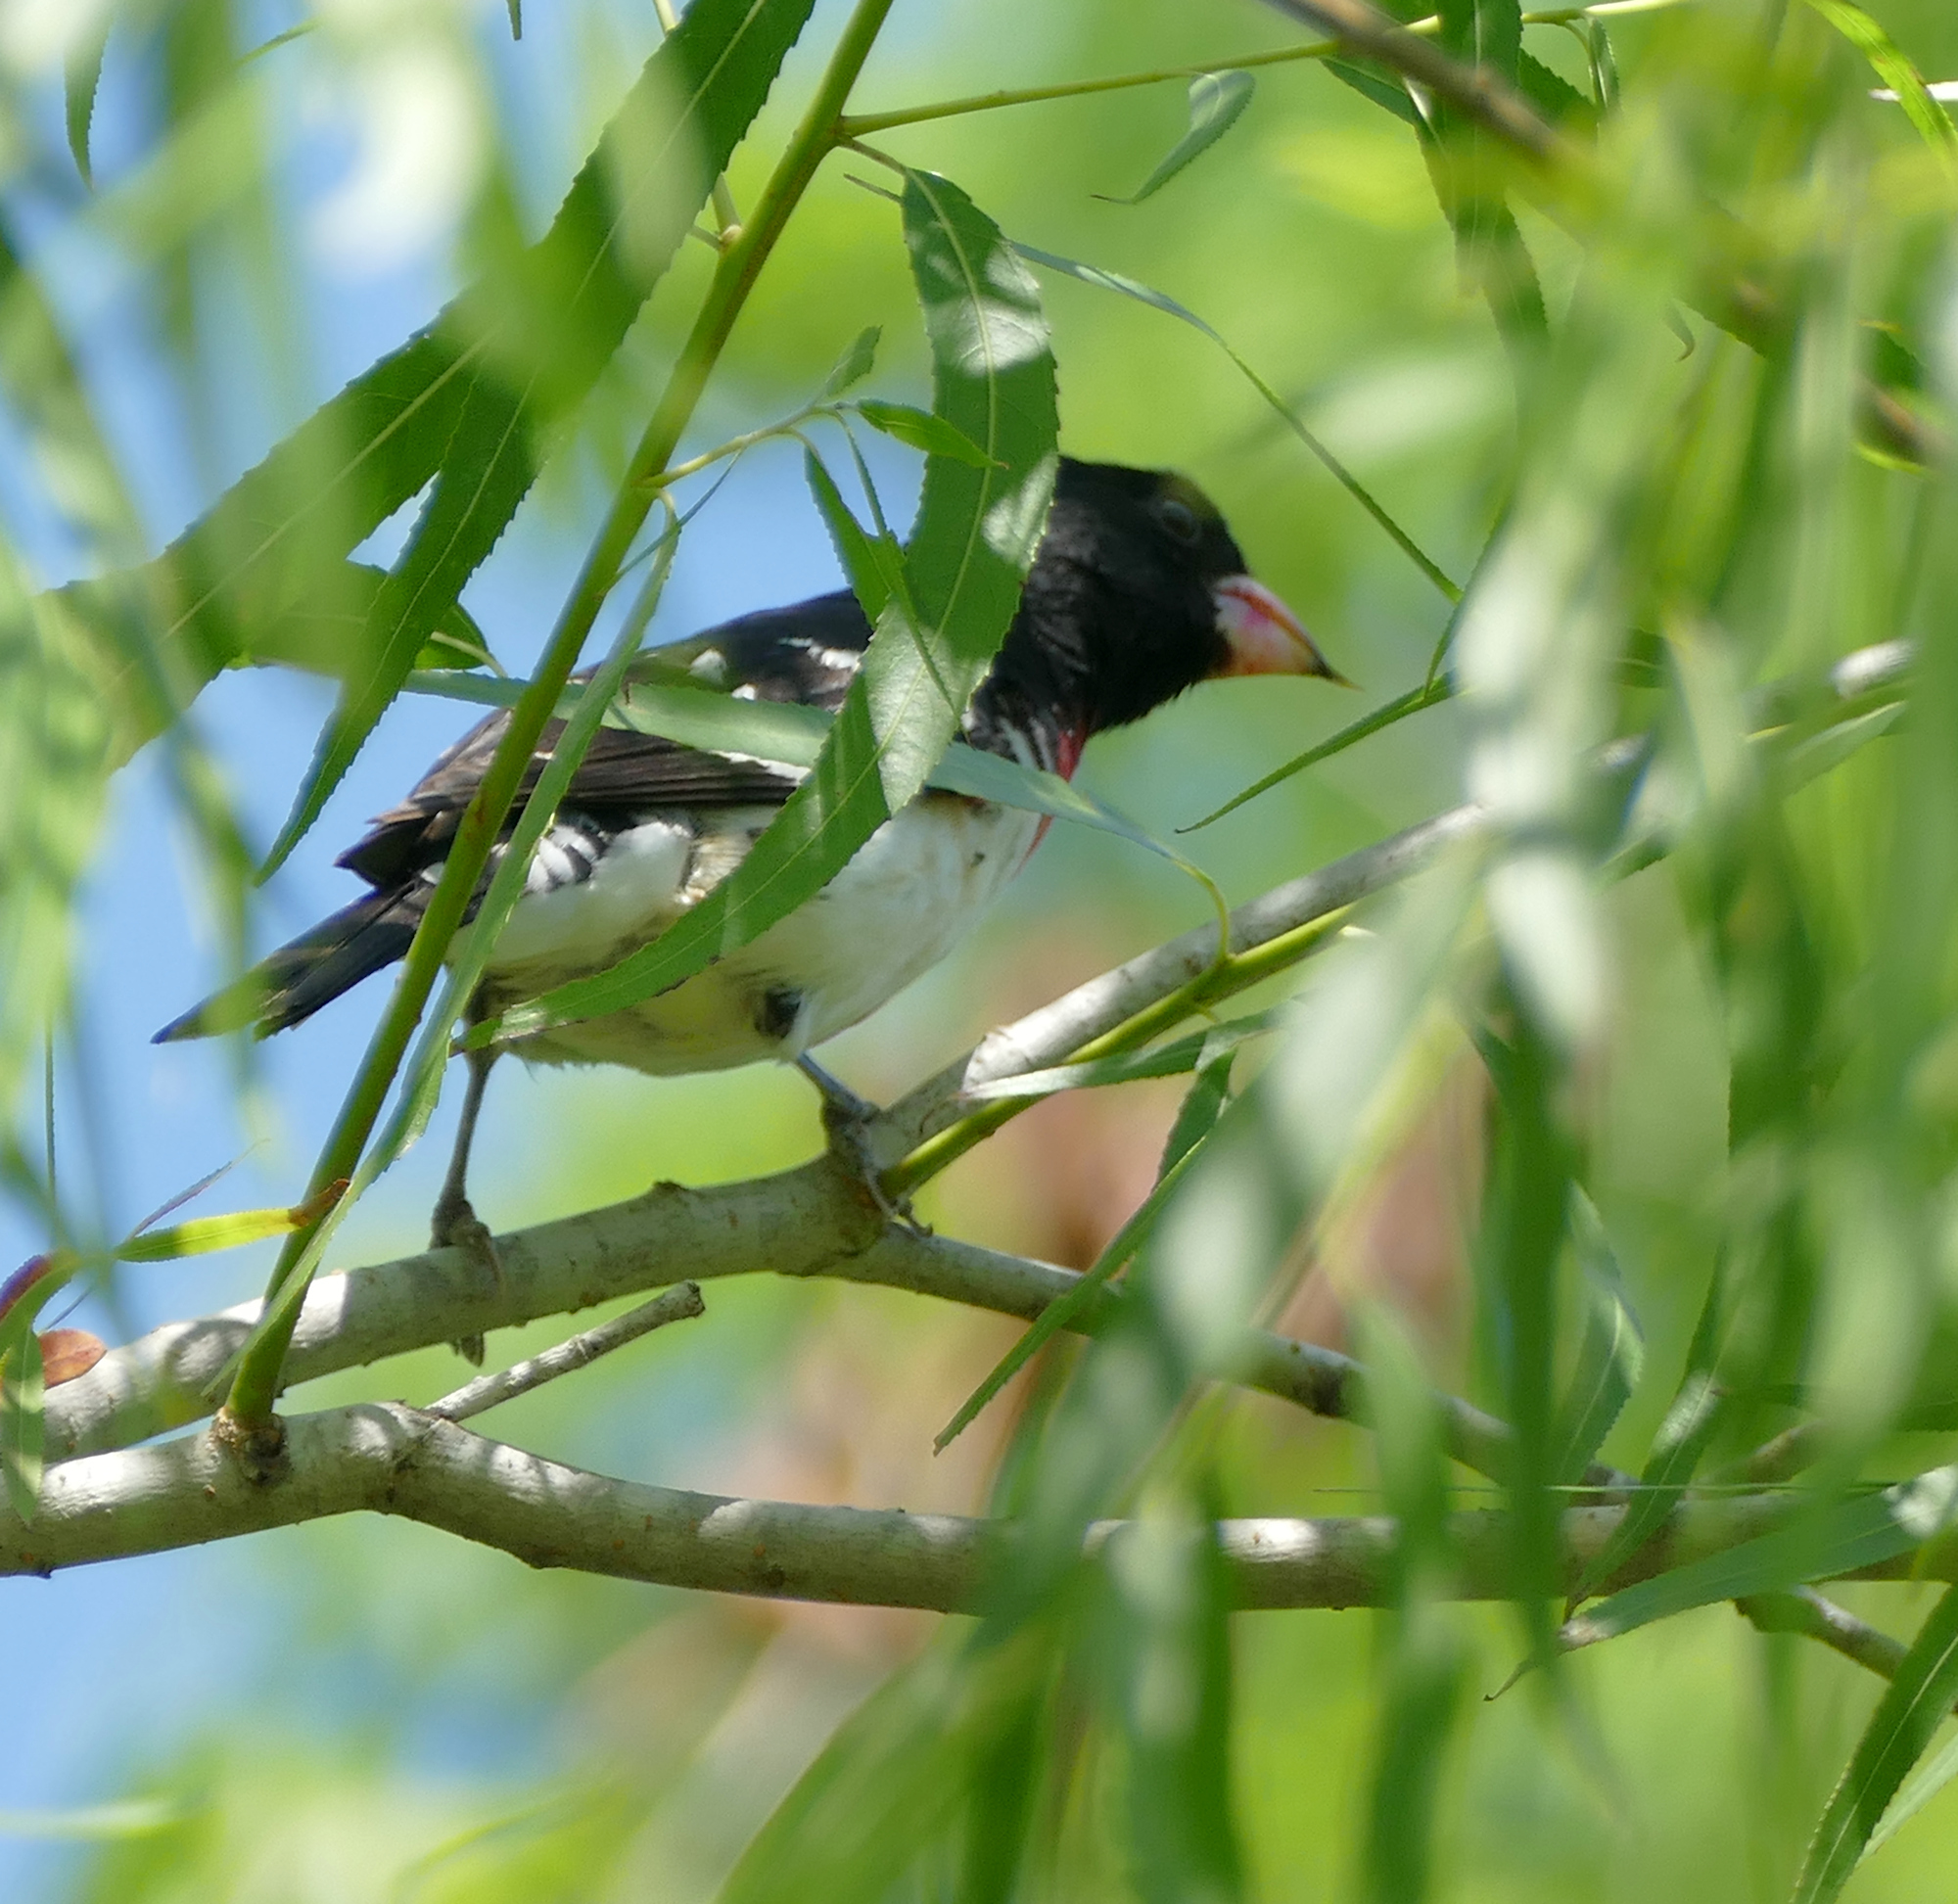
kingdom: Animalia
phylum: Chordata
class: Aves
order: Passeriformes
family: Cardinalidae
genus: Pheucticus
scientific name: Pheucticus ludovicianus
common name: Rose-breasted grosbeak
